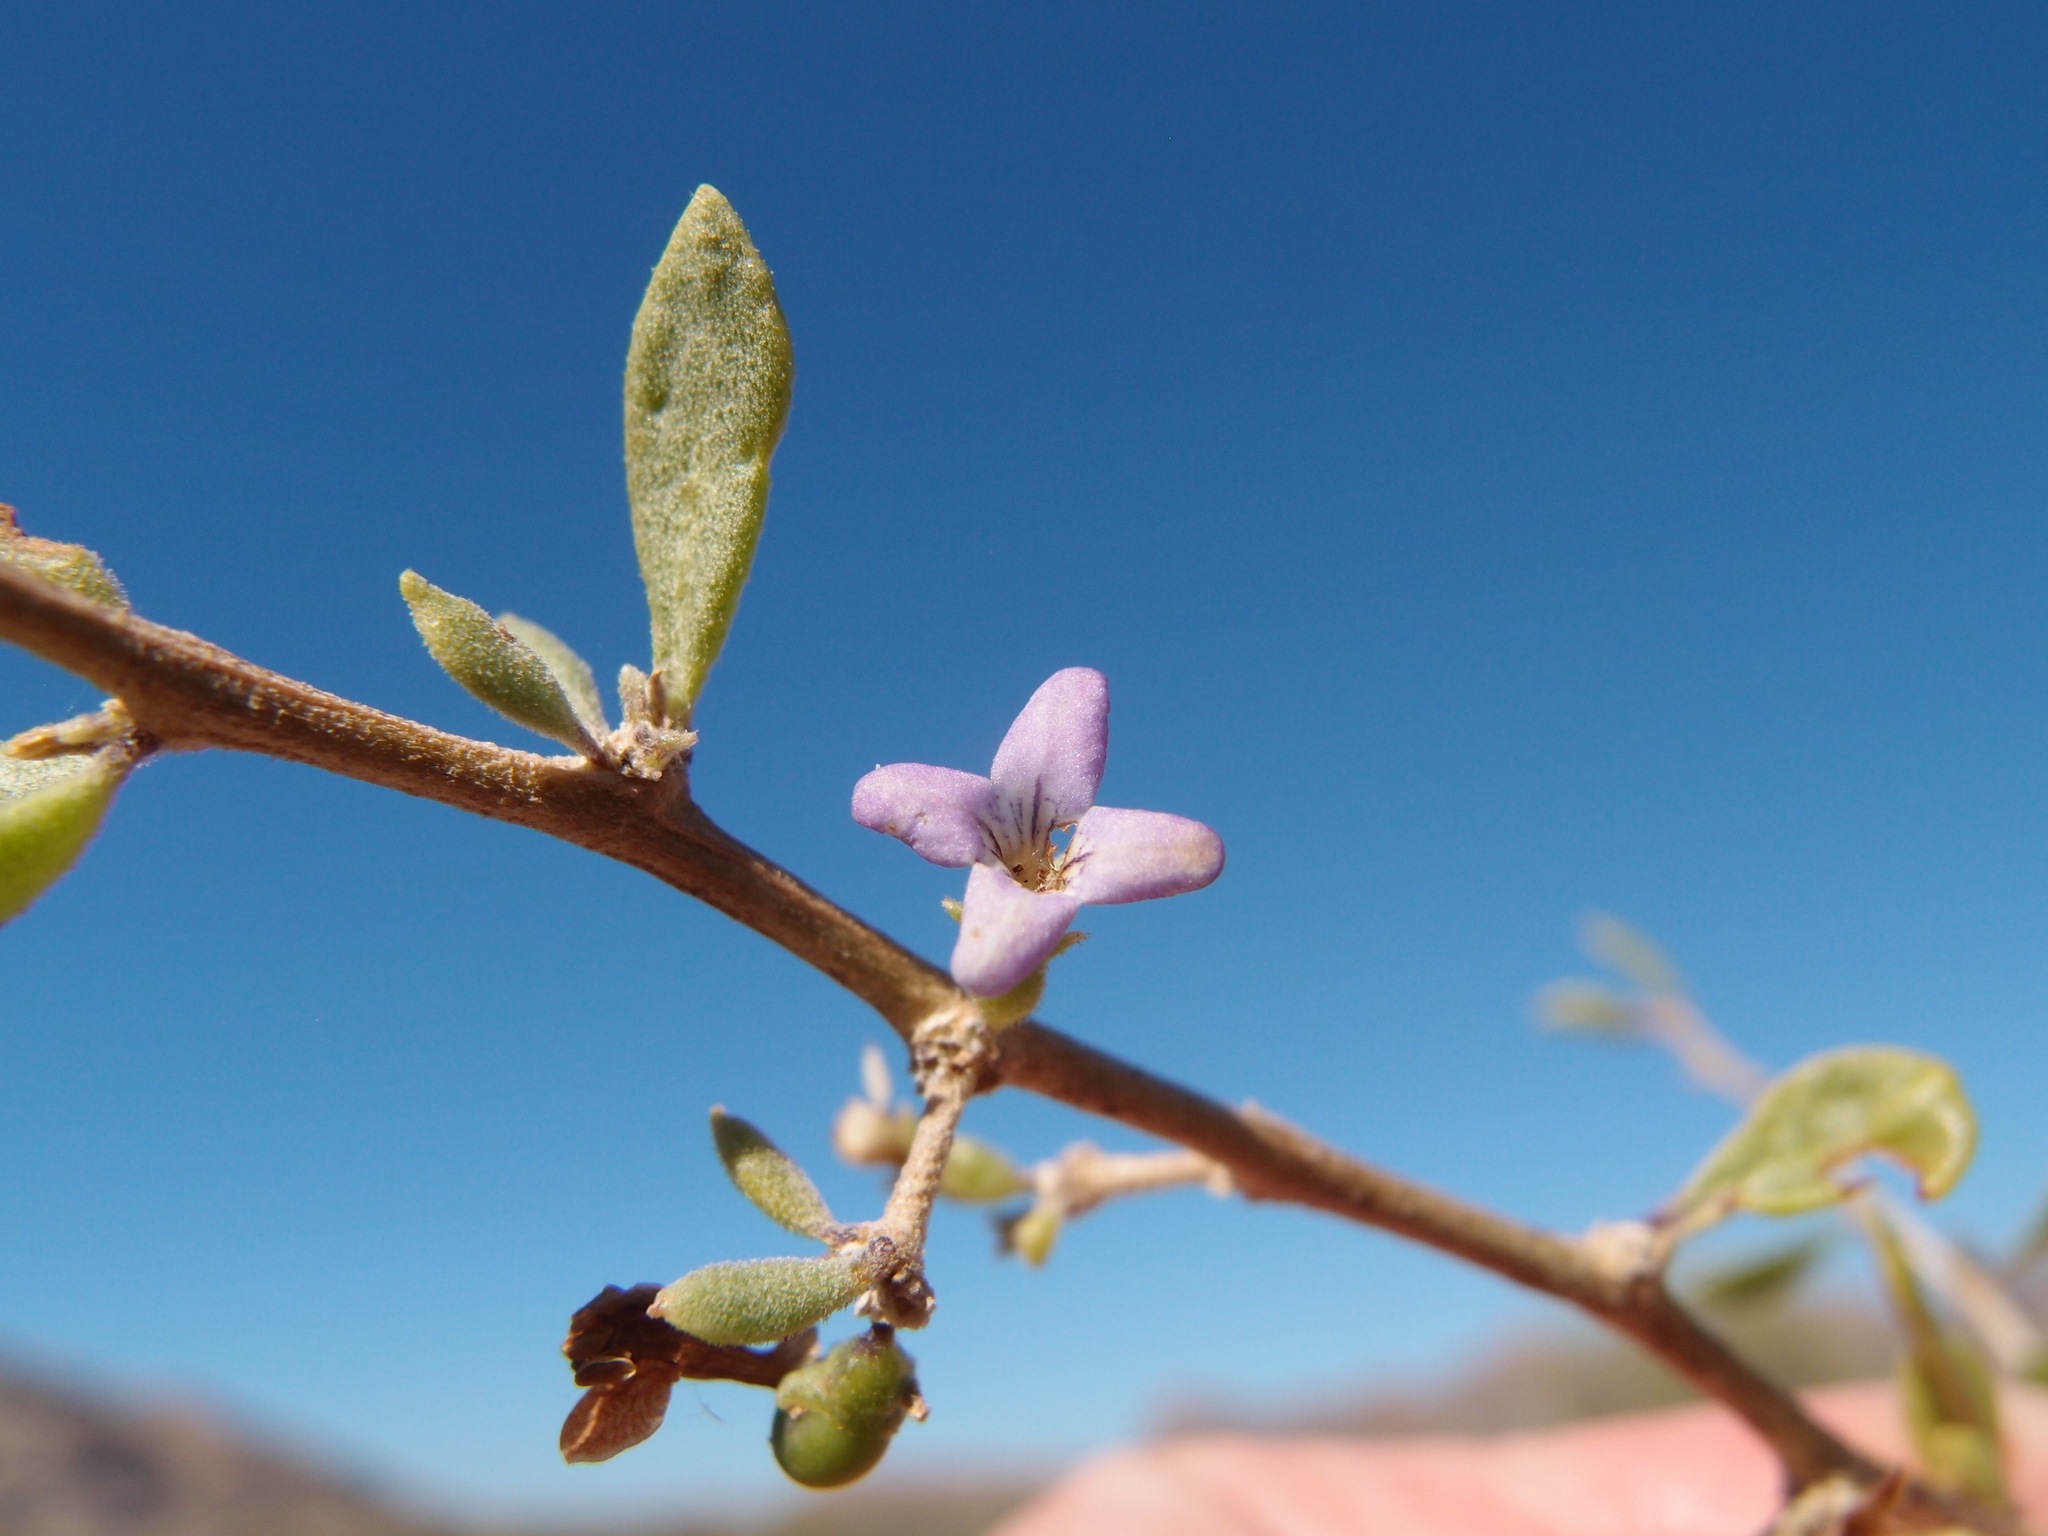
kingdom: Plantae
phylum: Tracheophyta
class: Magnoliopsida
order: Solanales
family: Solanaceae
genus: Lycium
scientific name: Lycium brevipes
